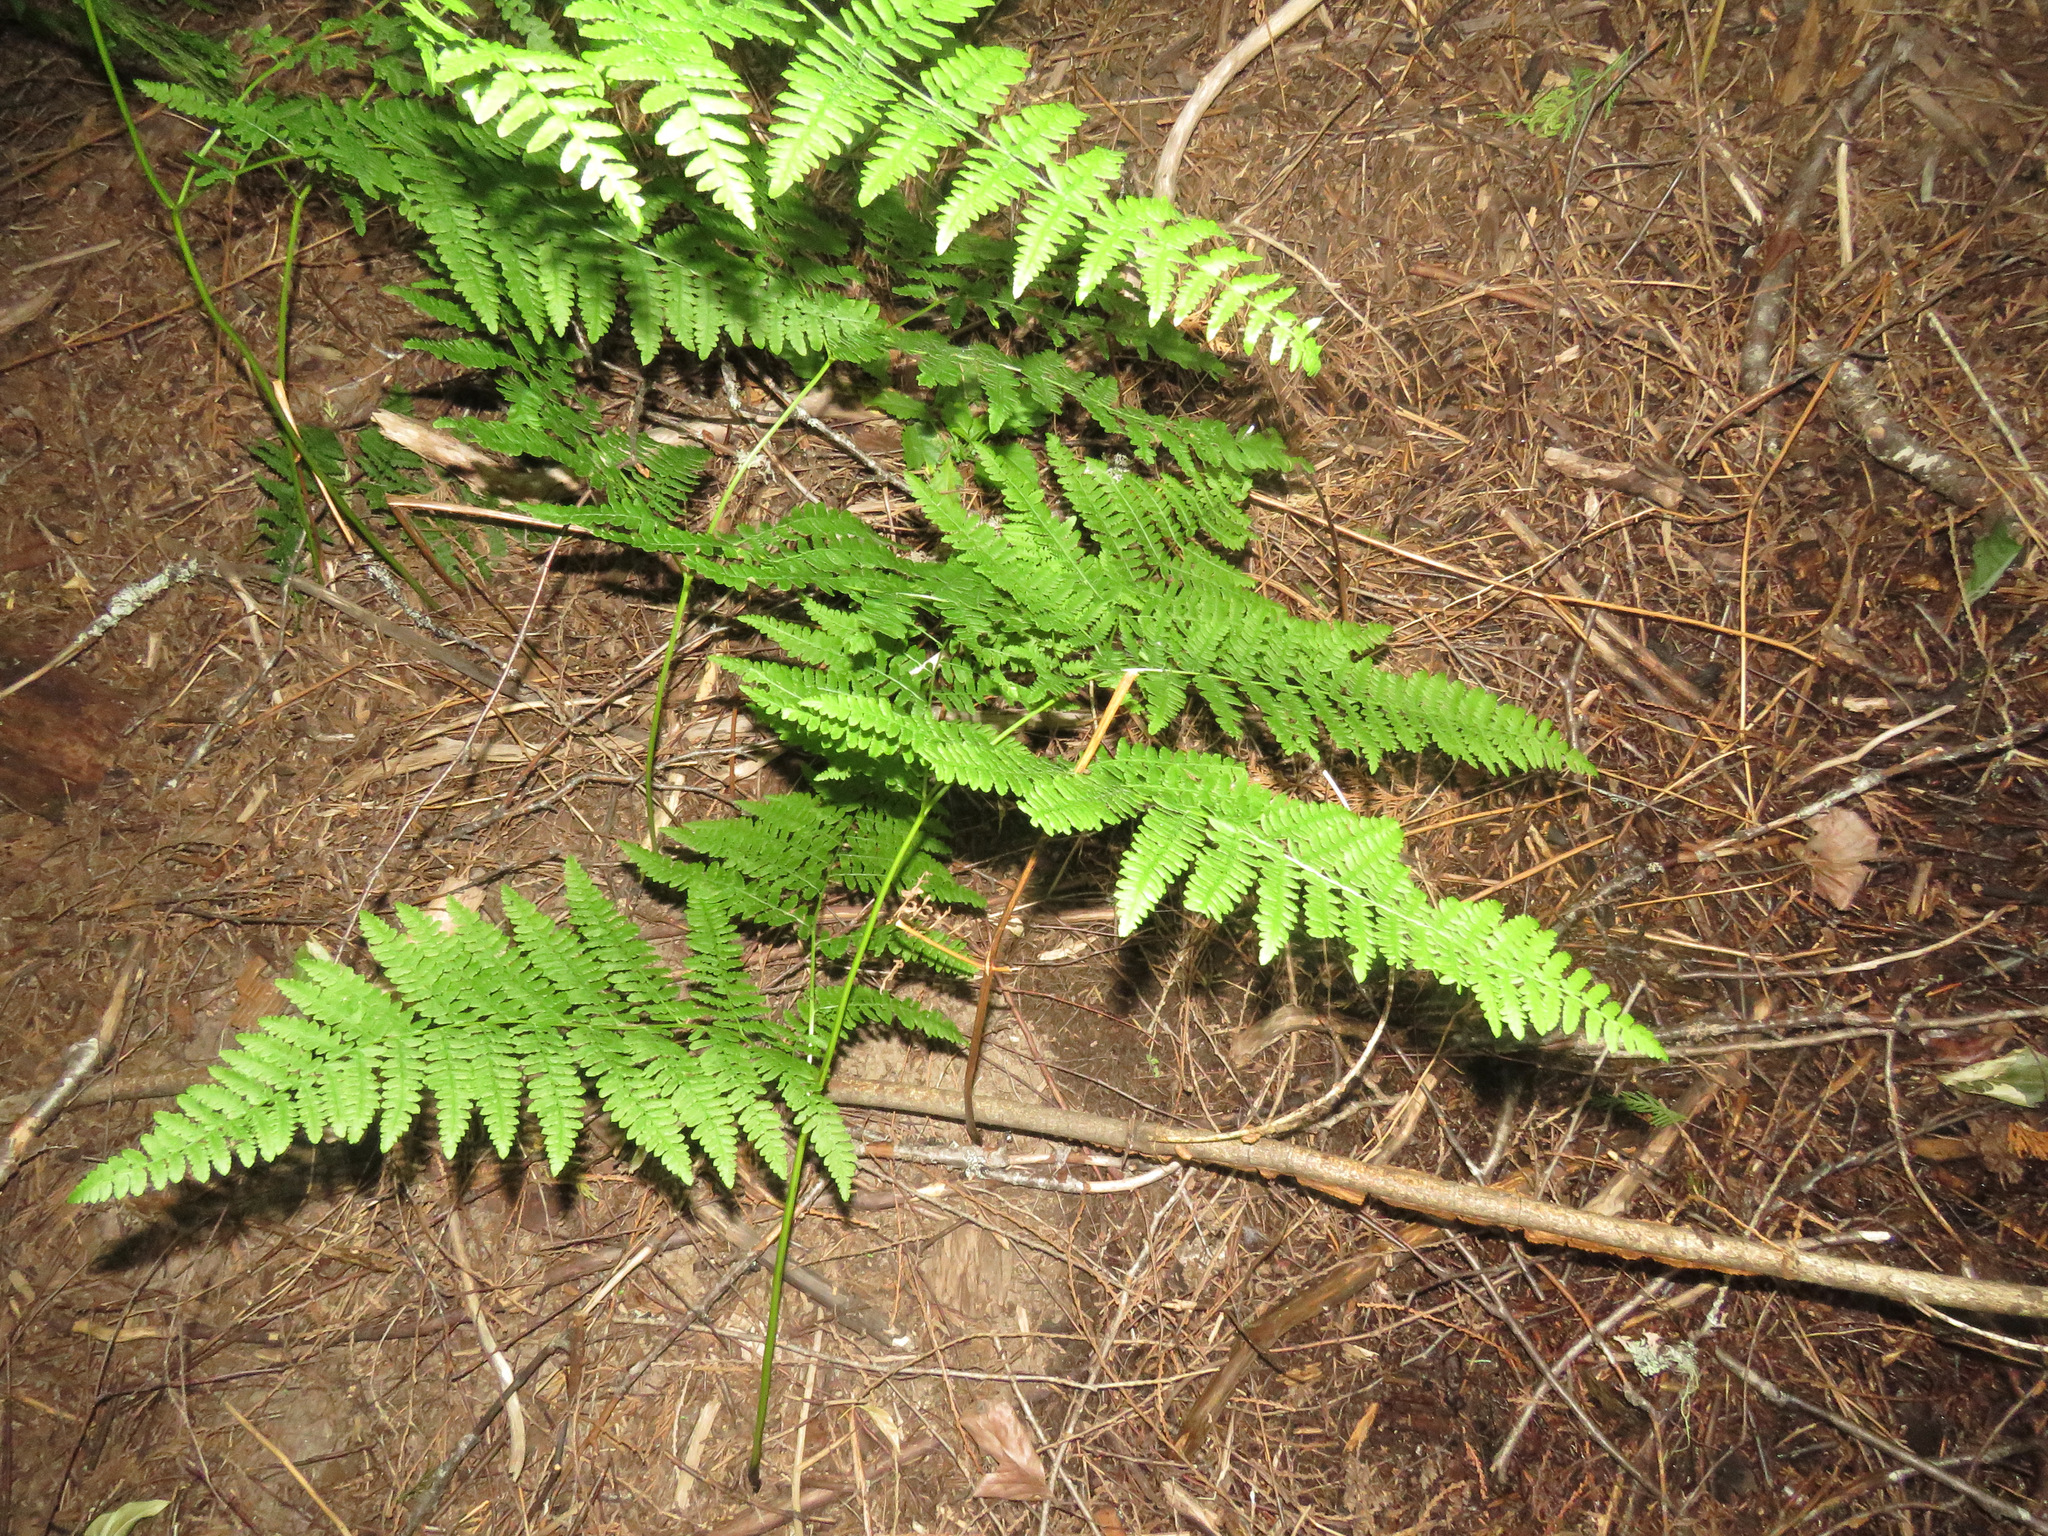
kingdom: Plantae
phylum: Tracheophyta
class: Polypodiopsida
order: Polypodiales
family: Dennstaedtiaceae
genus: Pteridium
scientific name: Pteridium aquilinum
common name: Bracken
